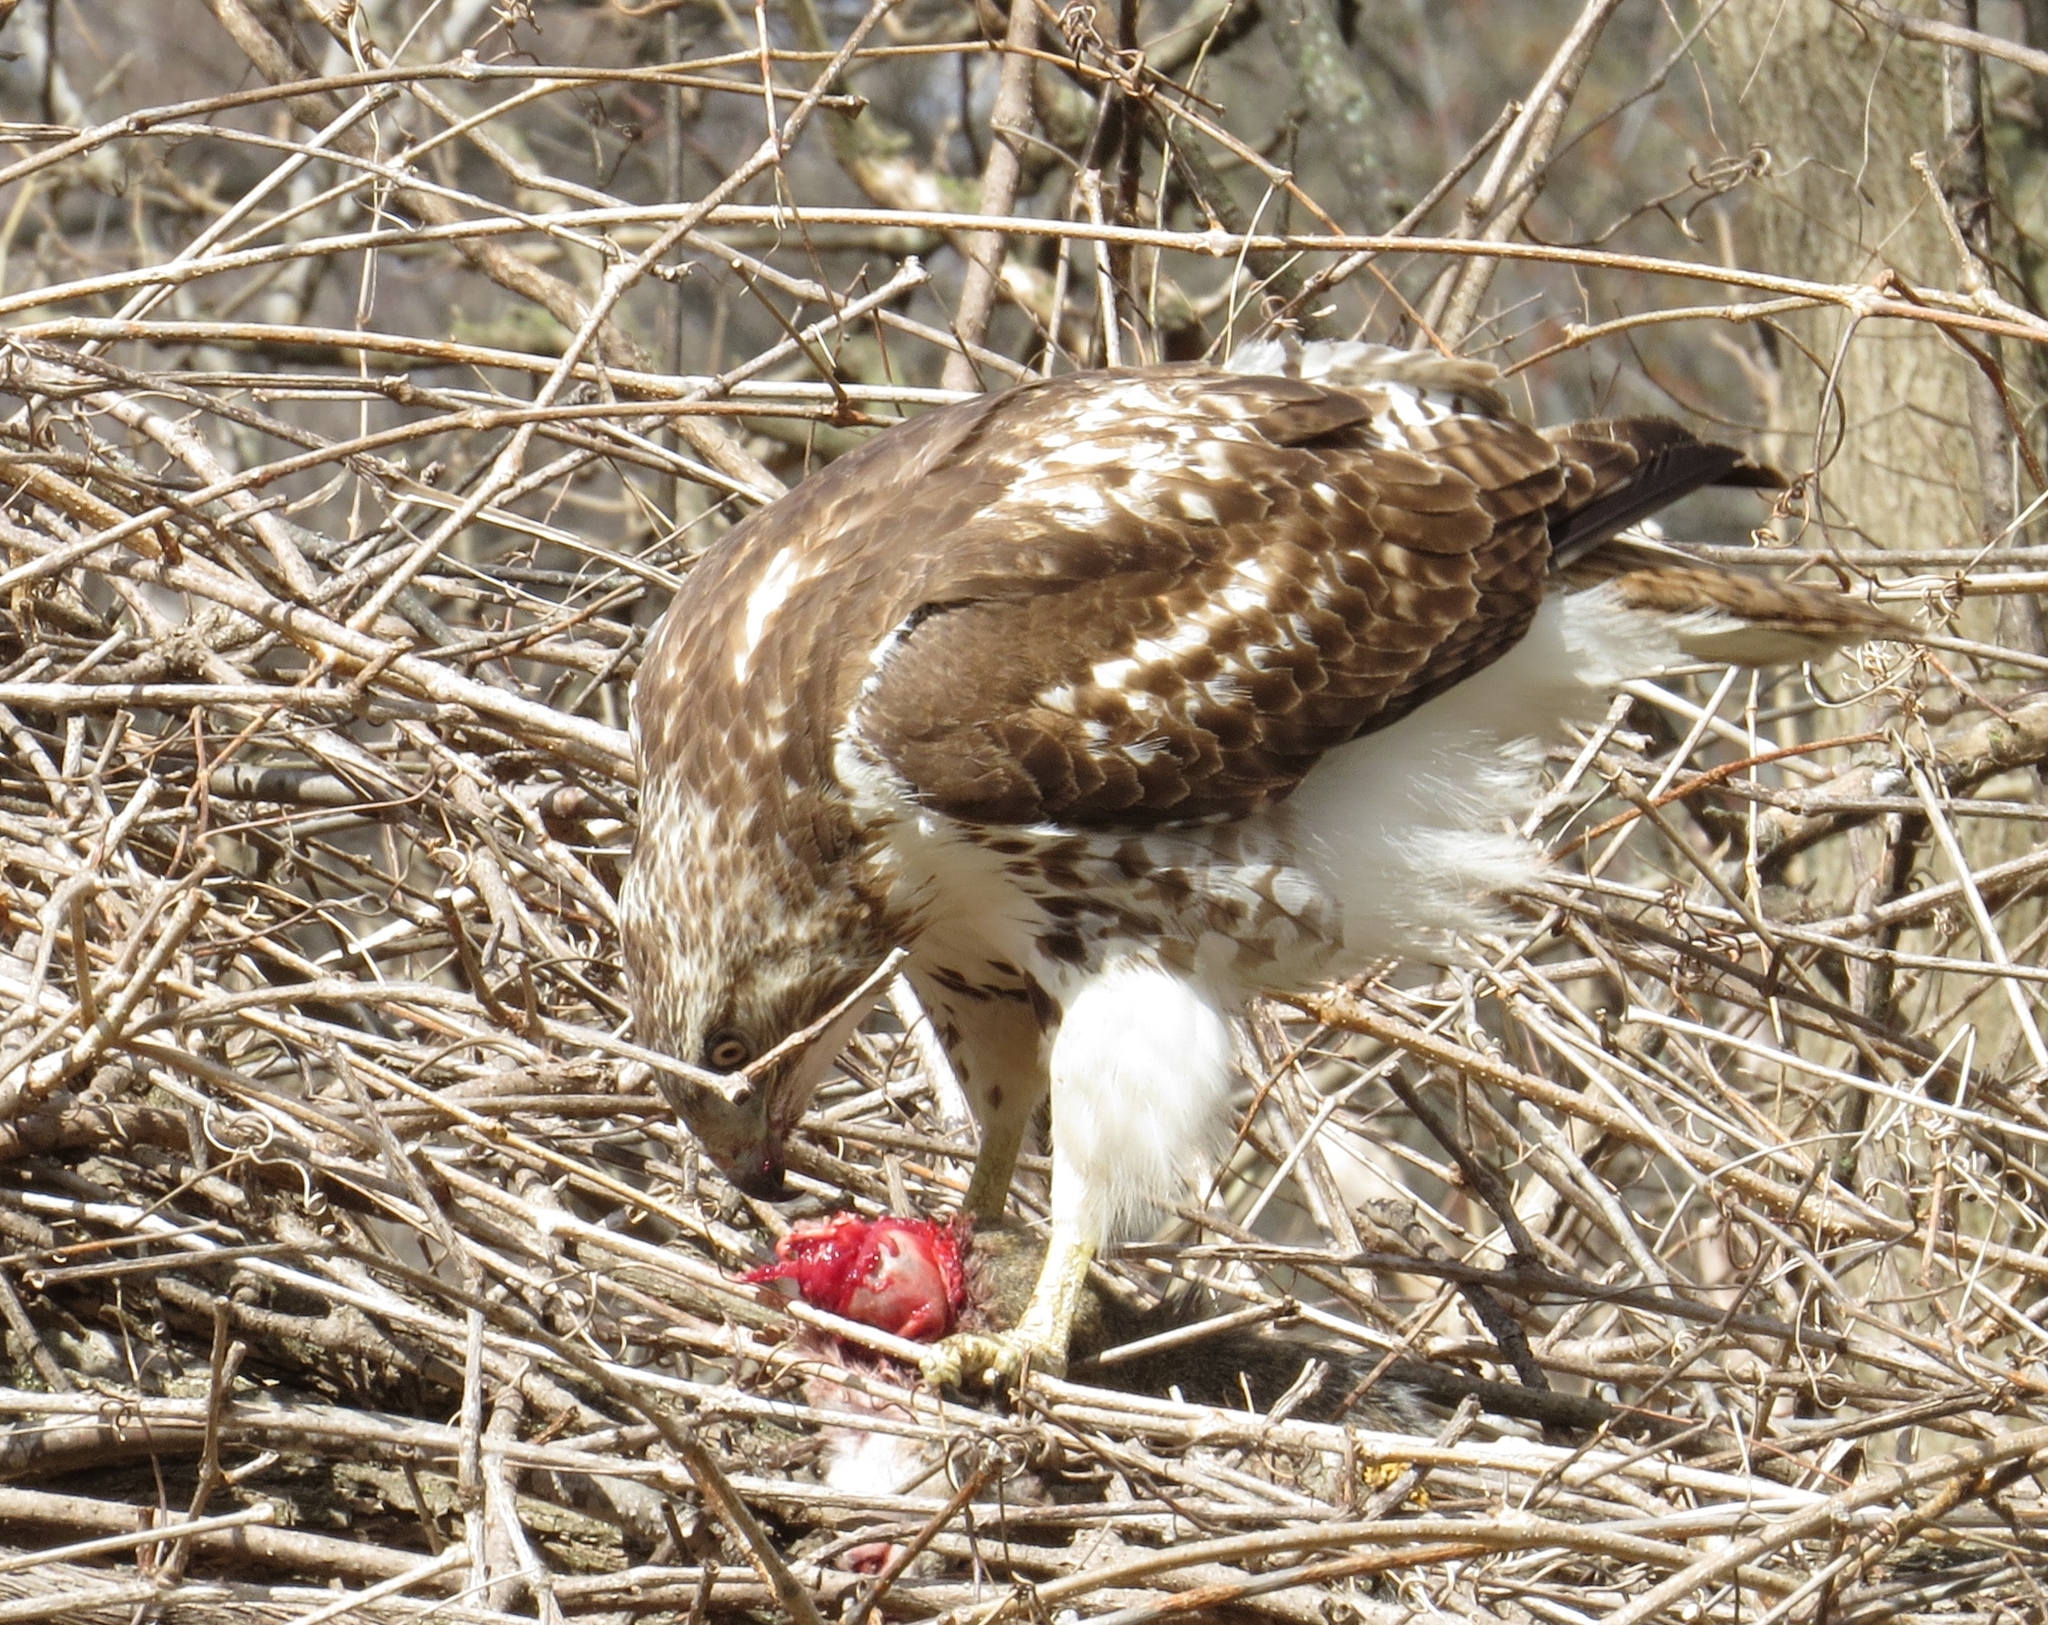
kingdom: Animalia
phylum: Chordata
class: Aves
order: Accipitriformes
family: Accipitridae
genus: Buteo
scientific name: Buteo jamaicensis
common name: Red-tailed hawk
